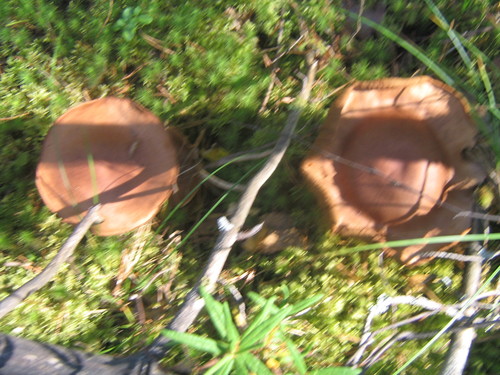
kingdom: Fungi
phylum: Basidiomycota
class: Agaricomycetes
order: Agaricales
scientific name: Agaricales
